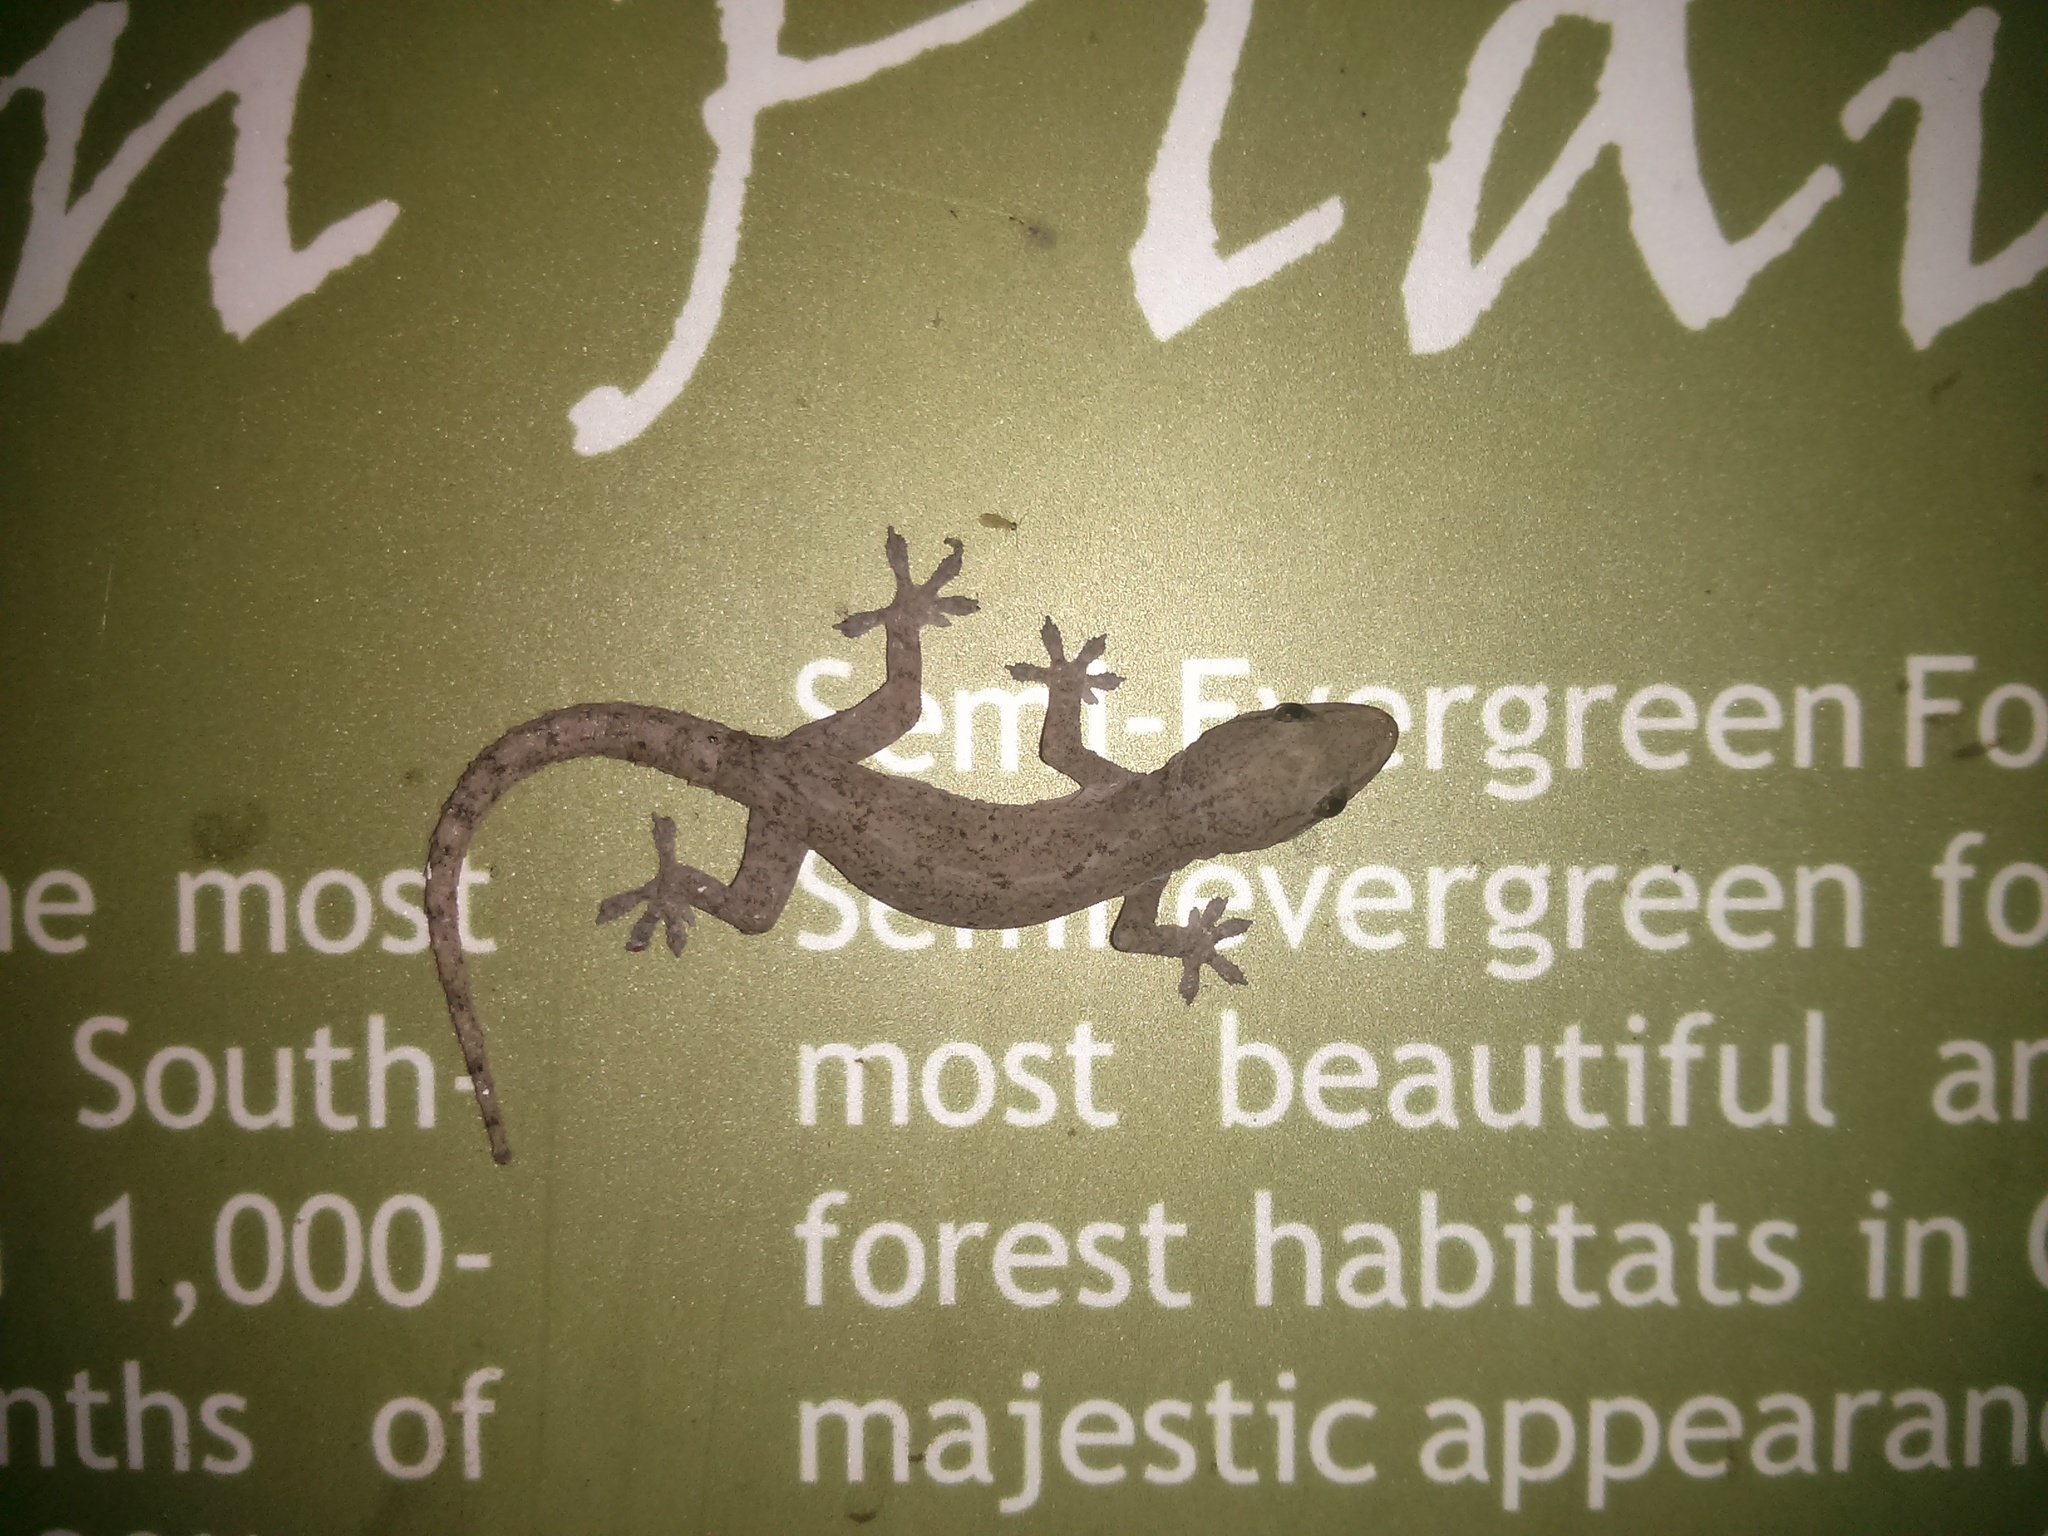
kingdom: Animalia
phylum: Chordata
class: Squamata
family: Gekkonidae
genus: Hemidactylus
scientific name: Hemidactylus frenatus
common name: Common house gecko
